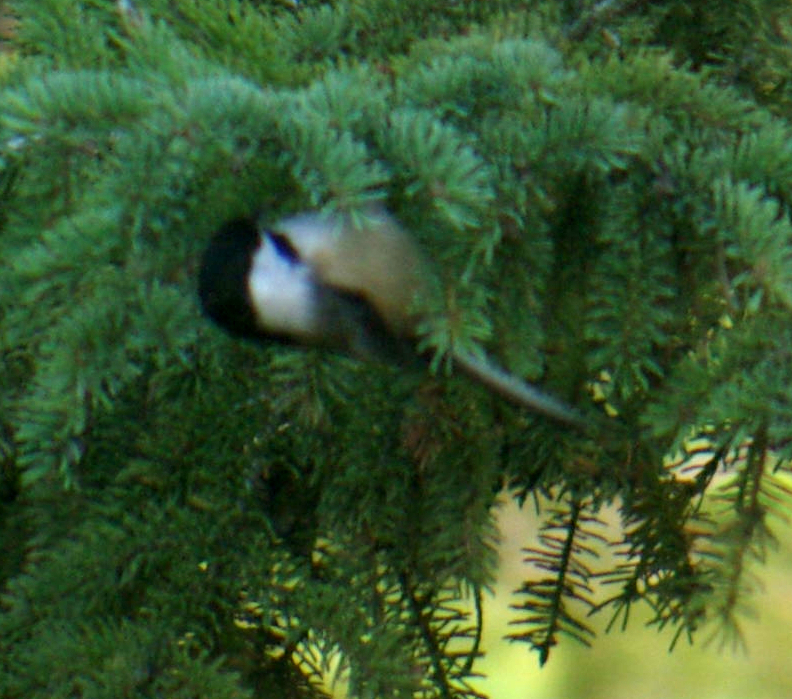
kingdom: Animalia
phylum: Chordata
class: Aves
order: Passeriformes
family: Paridae
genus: Poecile
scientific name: Poecile atricapillus
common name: Black-capped chickadee
